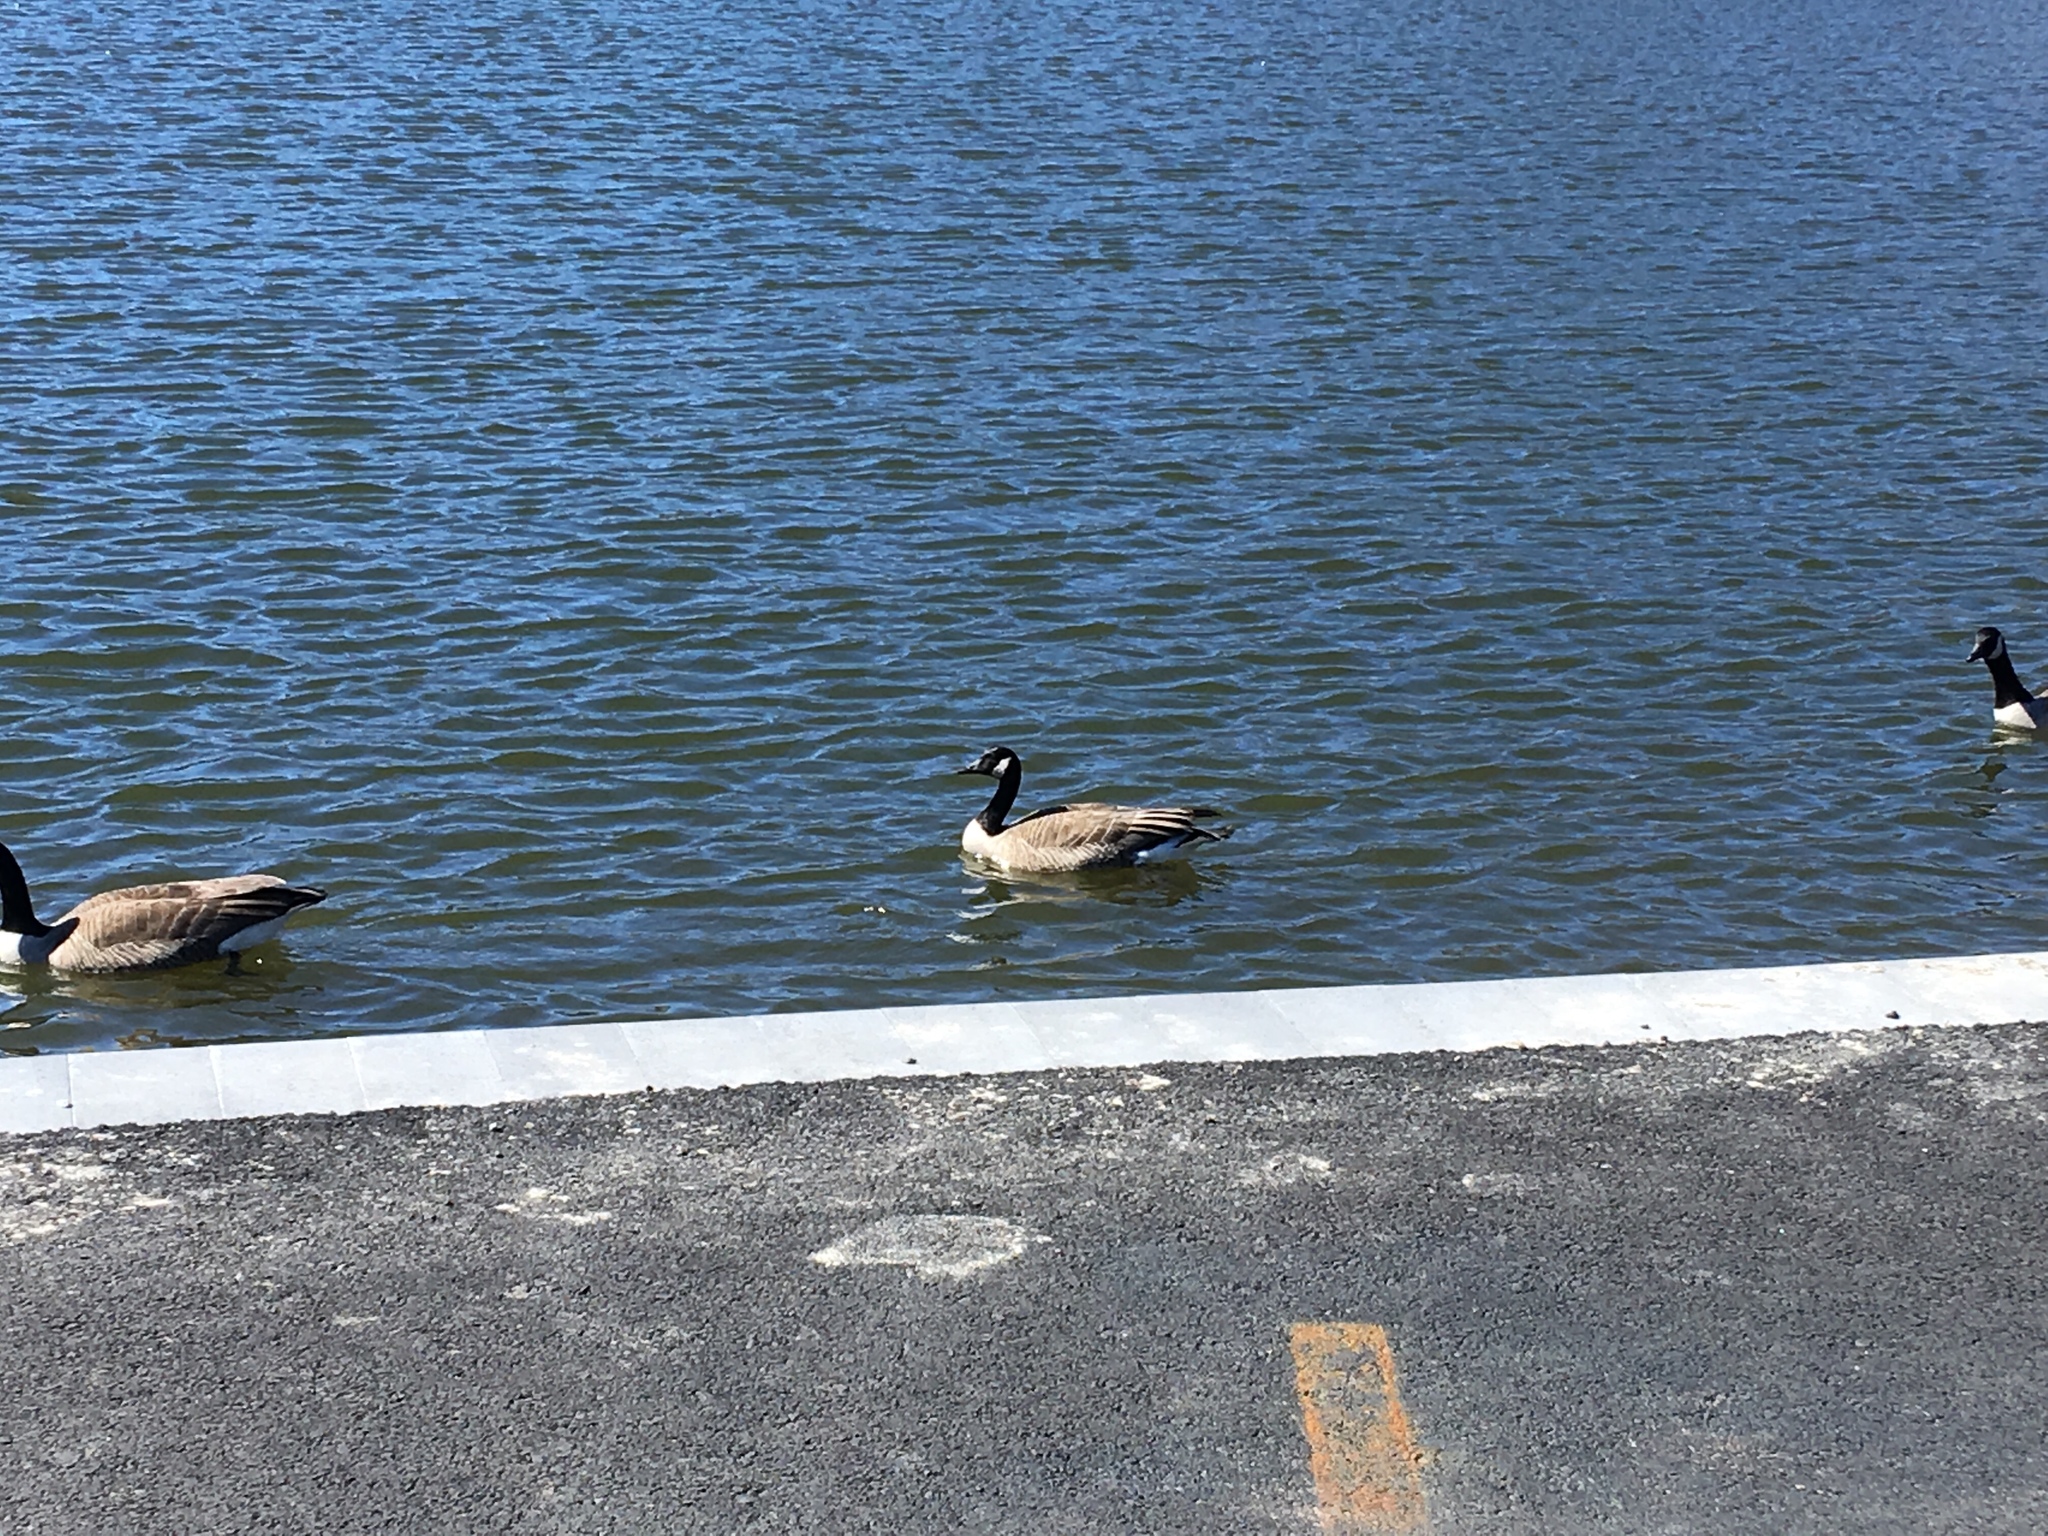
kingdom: Animalia
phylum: Chordata
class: Aves
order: Anseriformes
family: Anatidae
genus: Branta
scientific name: Branta canadensis
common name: Canada goose
